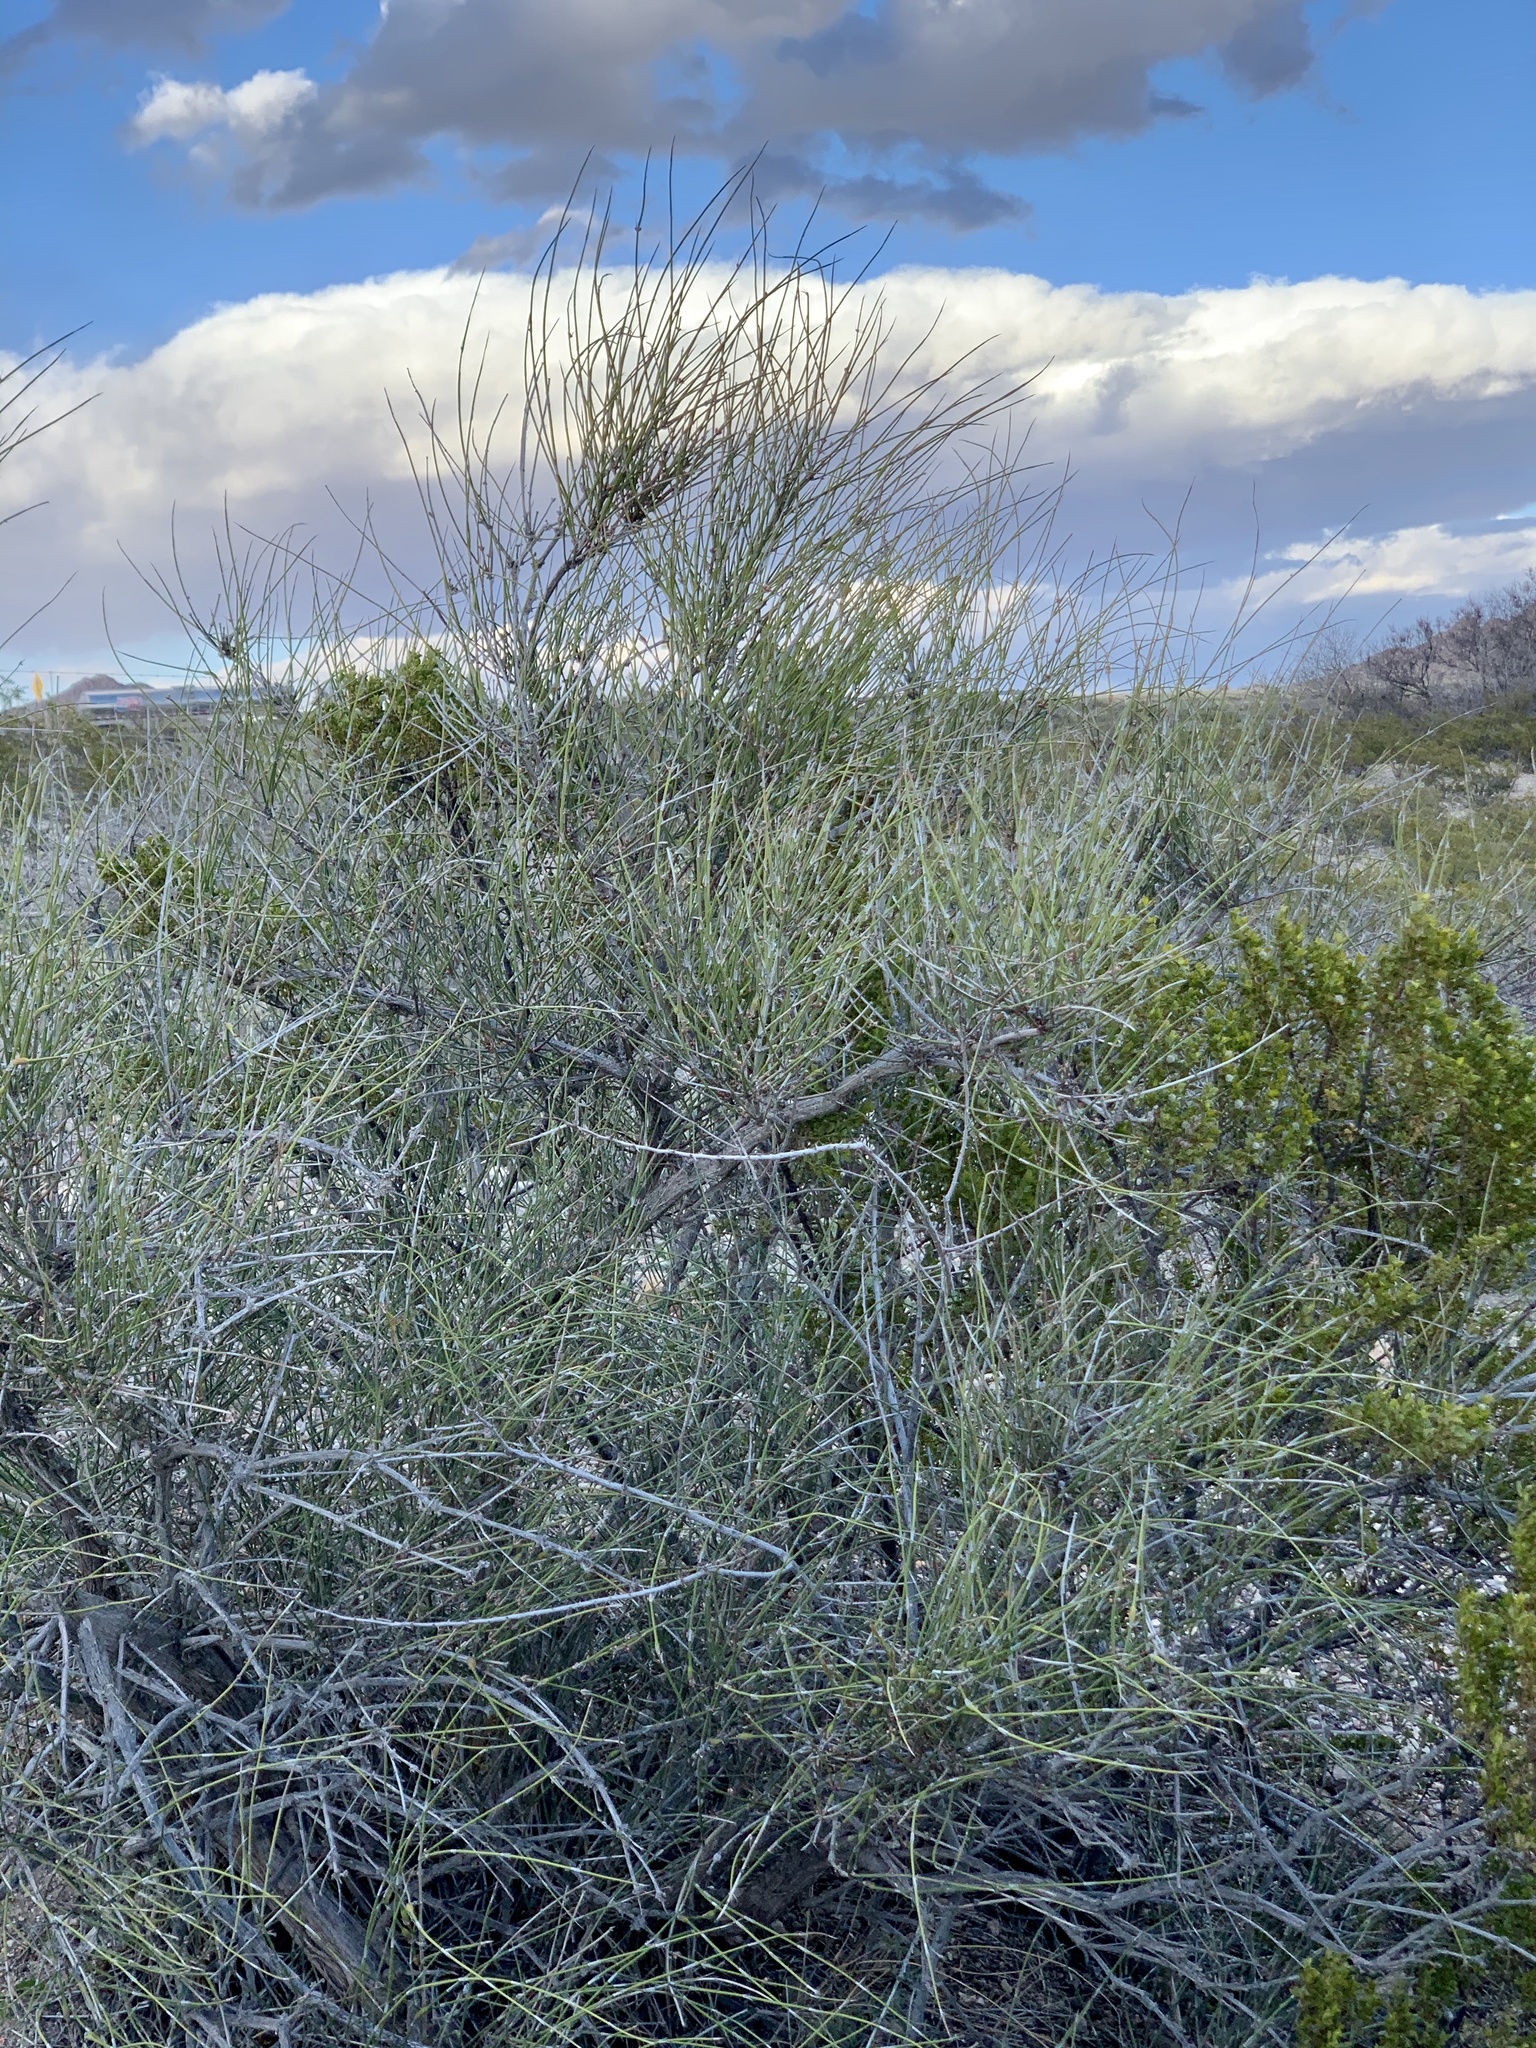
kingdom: Plantae
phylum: Tracheophyta
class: Gnetopsida
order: Ephedrales
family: Ephedraceae
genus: Ephedra
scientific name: Ephedra trifurca
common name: Mexican-tea
